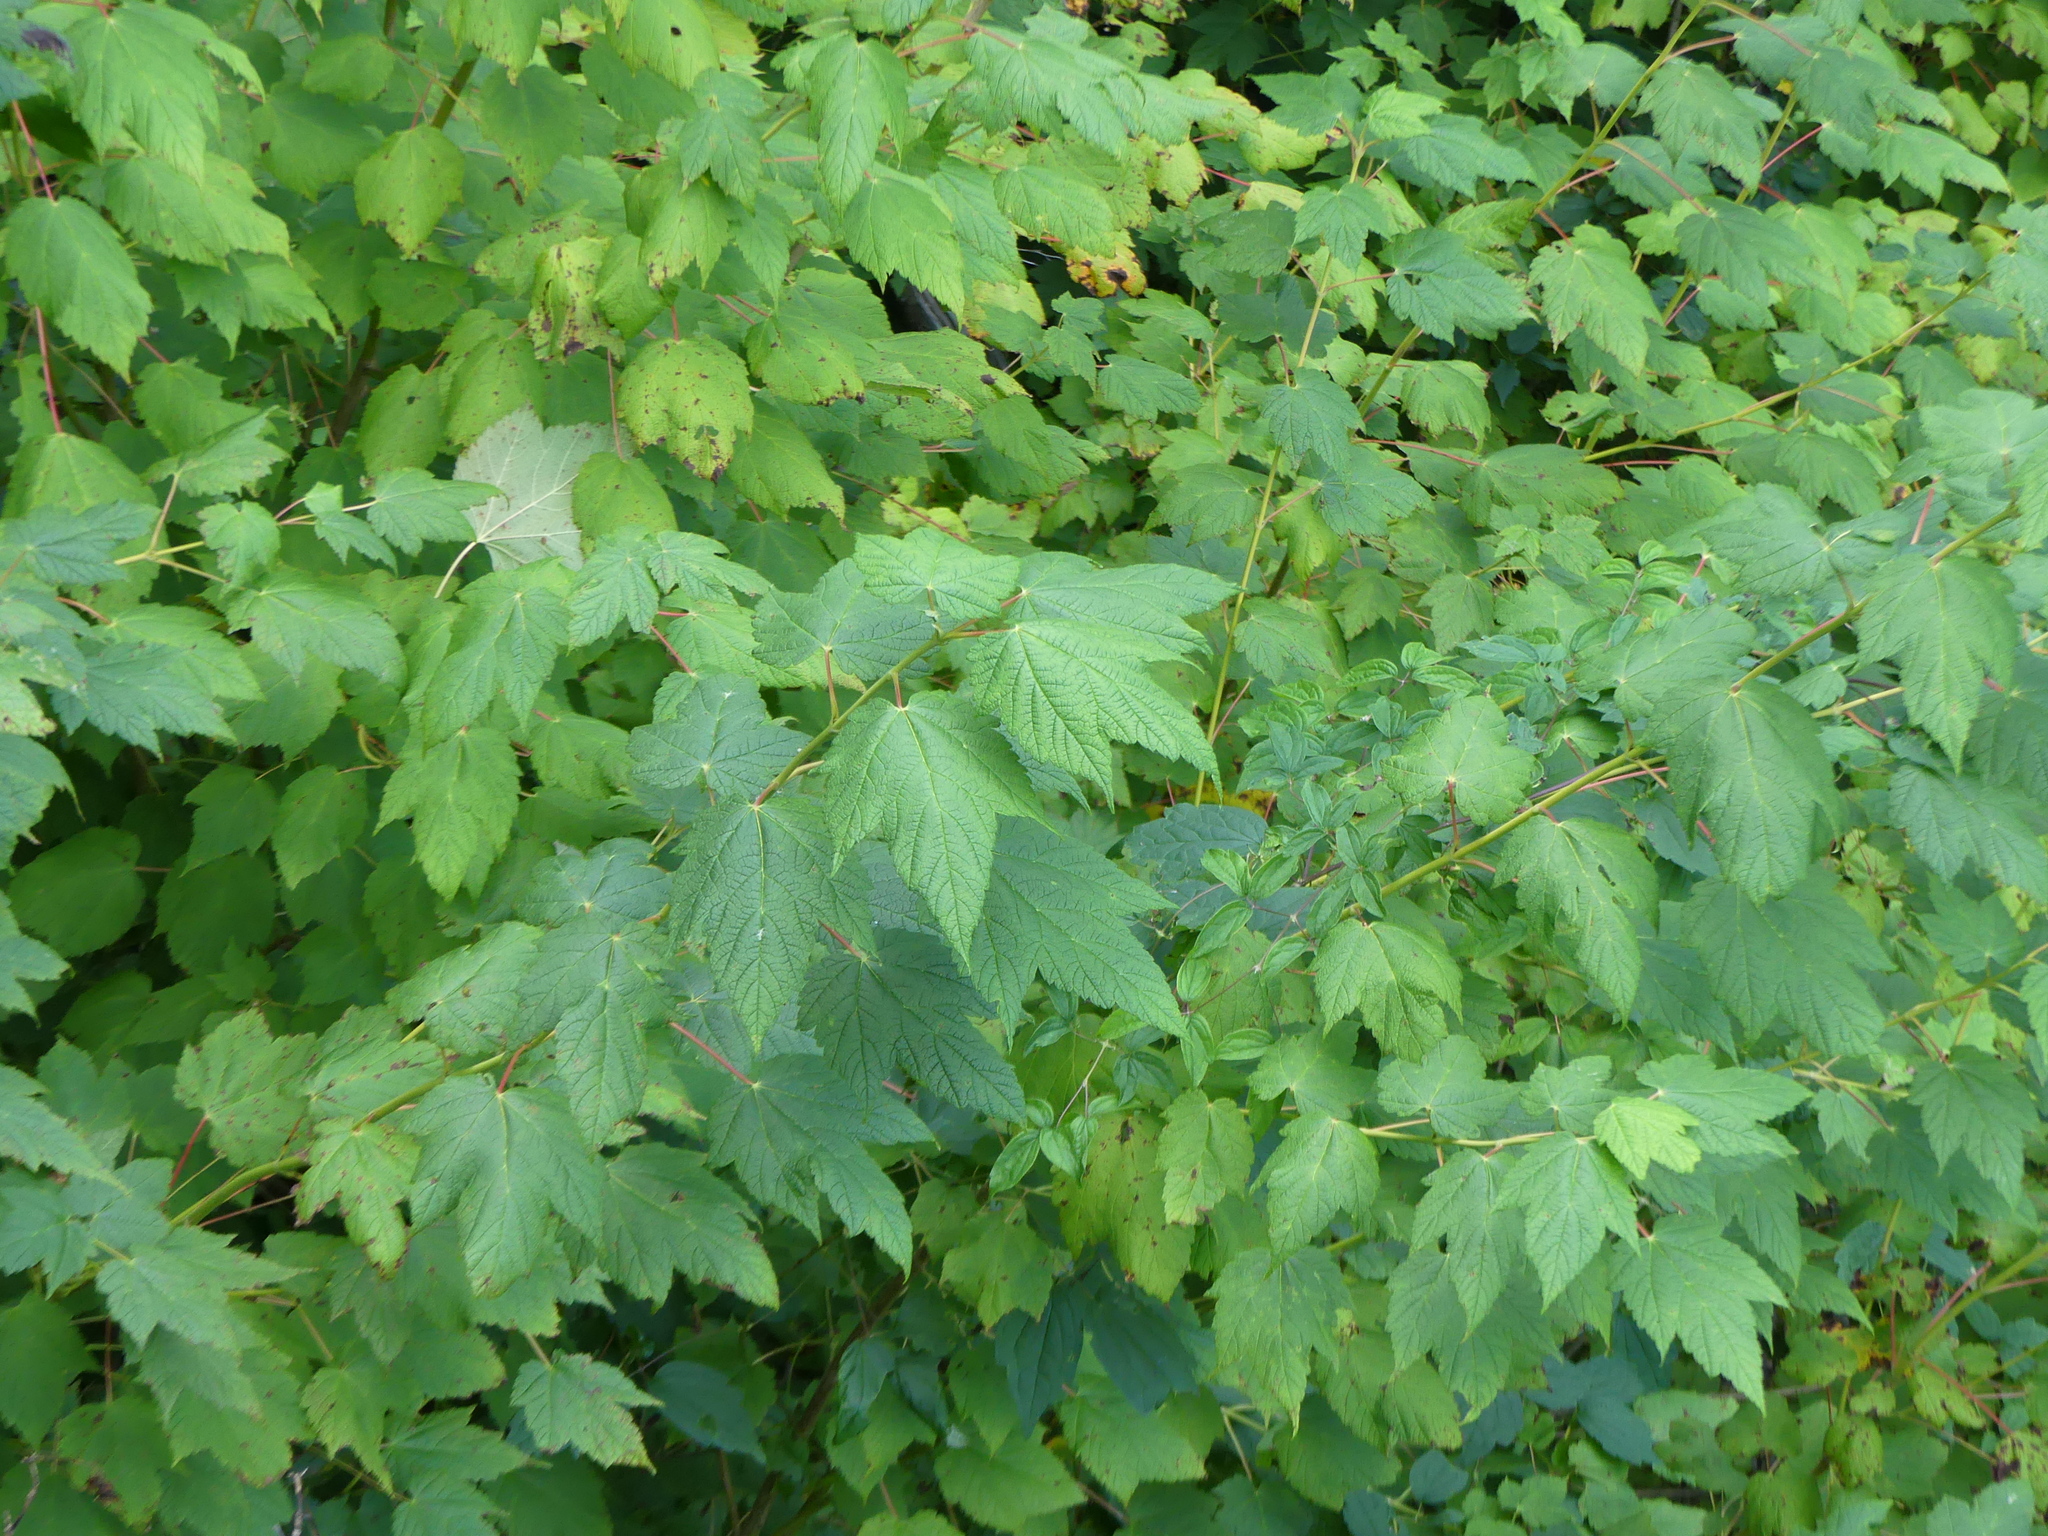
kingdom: Plantae
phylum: Tracheophyta
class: Magnoliopsida
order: Sapindales
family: Sapindaceae
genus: Acer
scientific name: Acer spicatum
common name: Mountain maple
